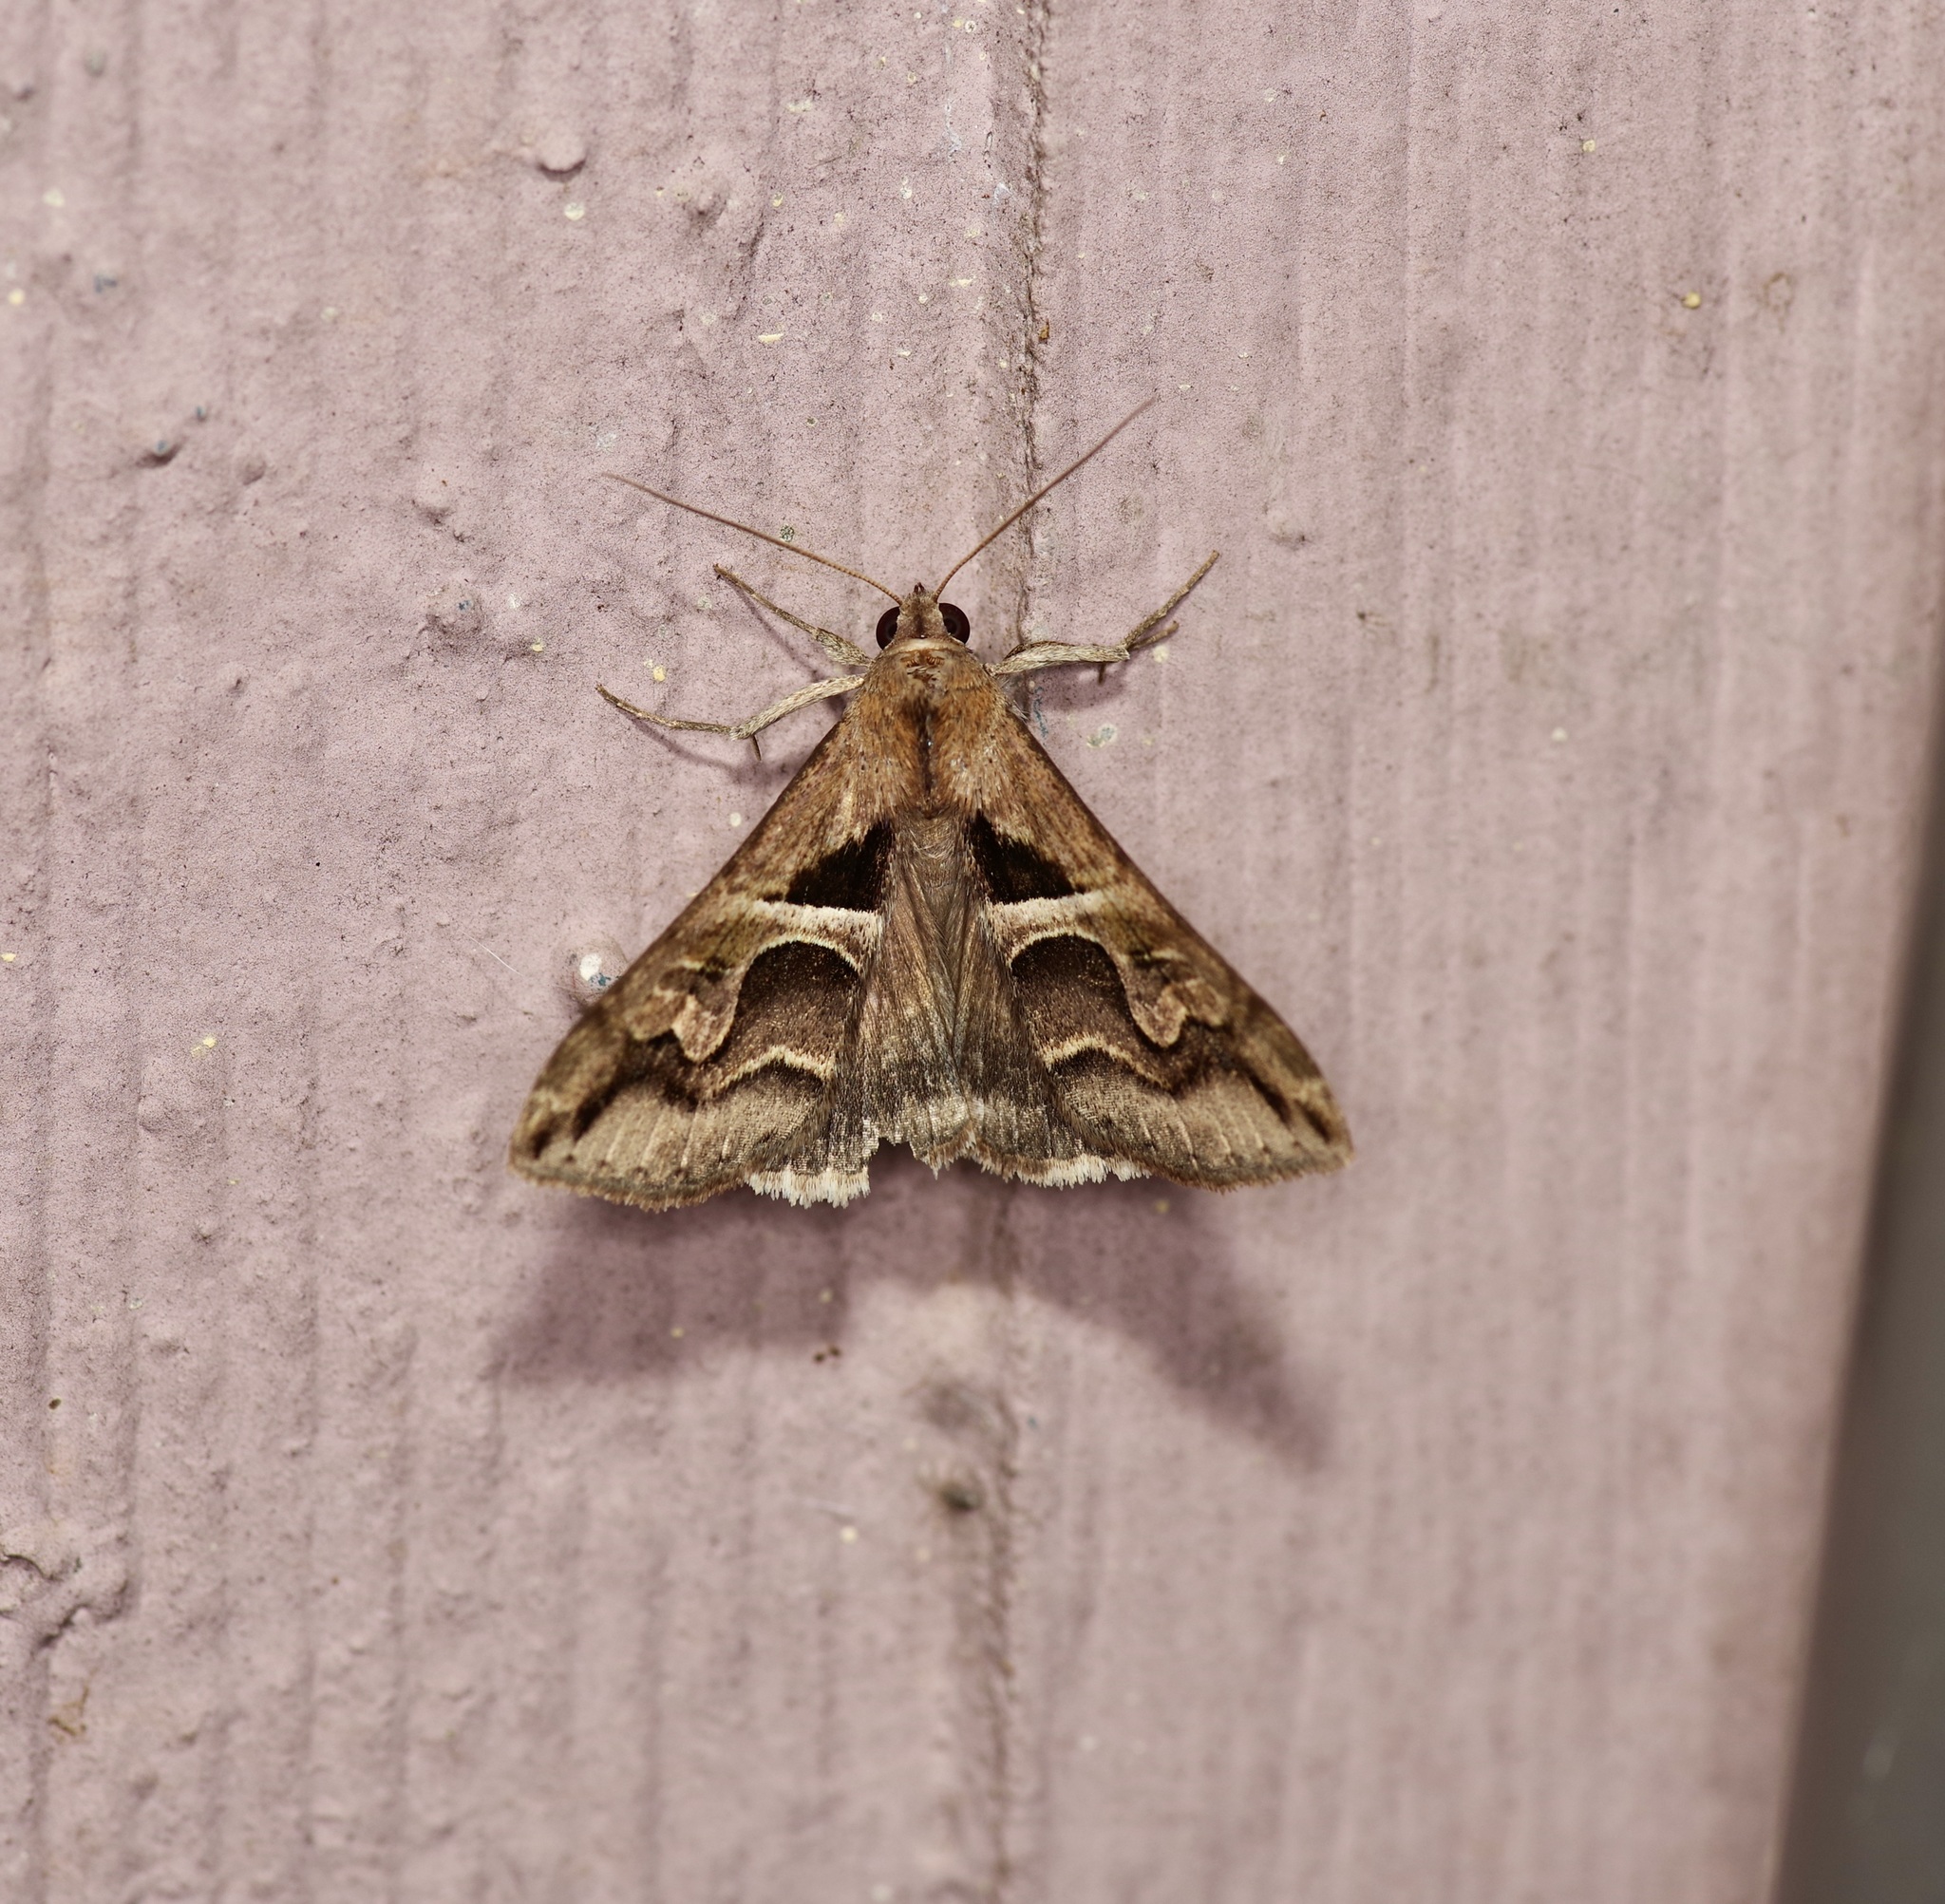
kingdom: Animalia
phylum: Arthropoda
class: Insecta
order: Lepidoptera
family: Erebidae
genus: Melipotis
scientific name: Melipotis cellaris
